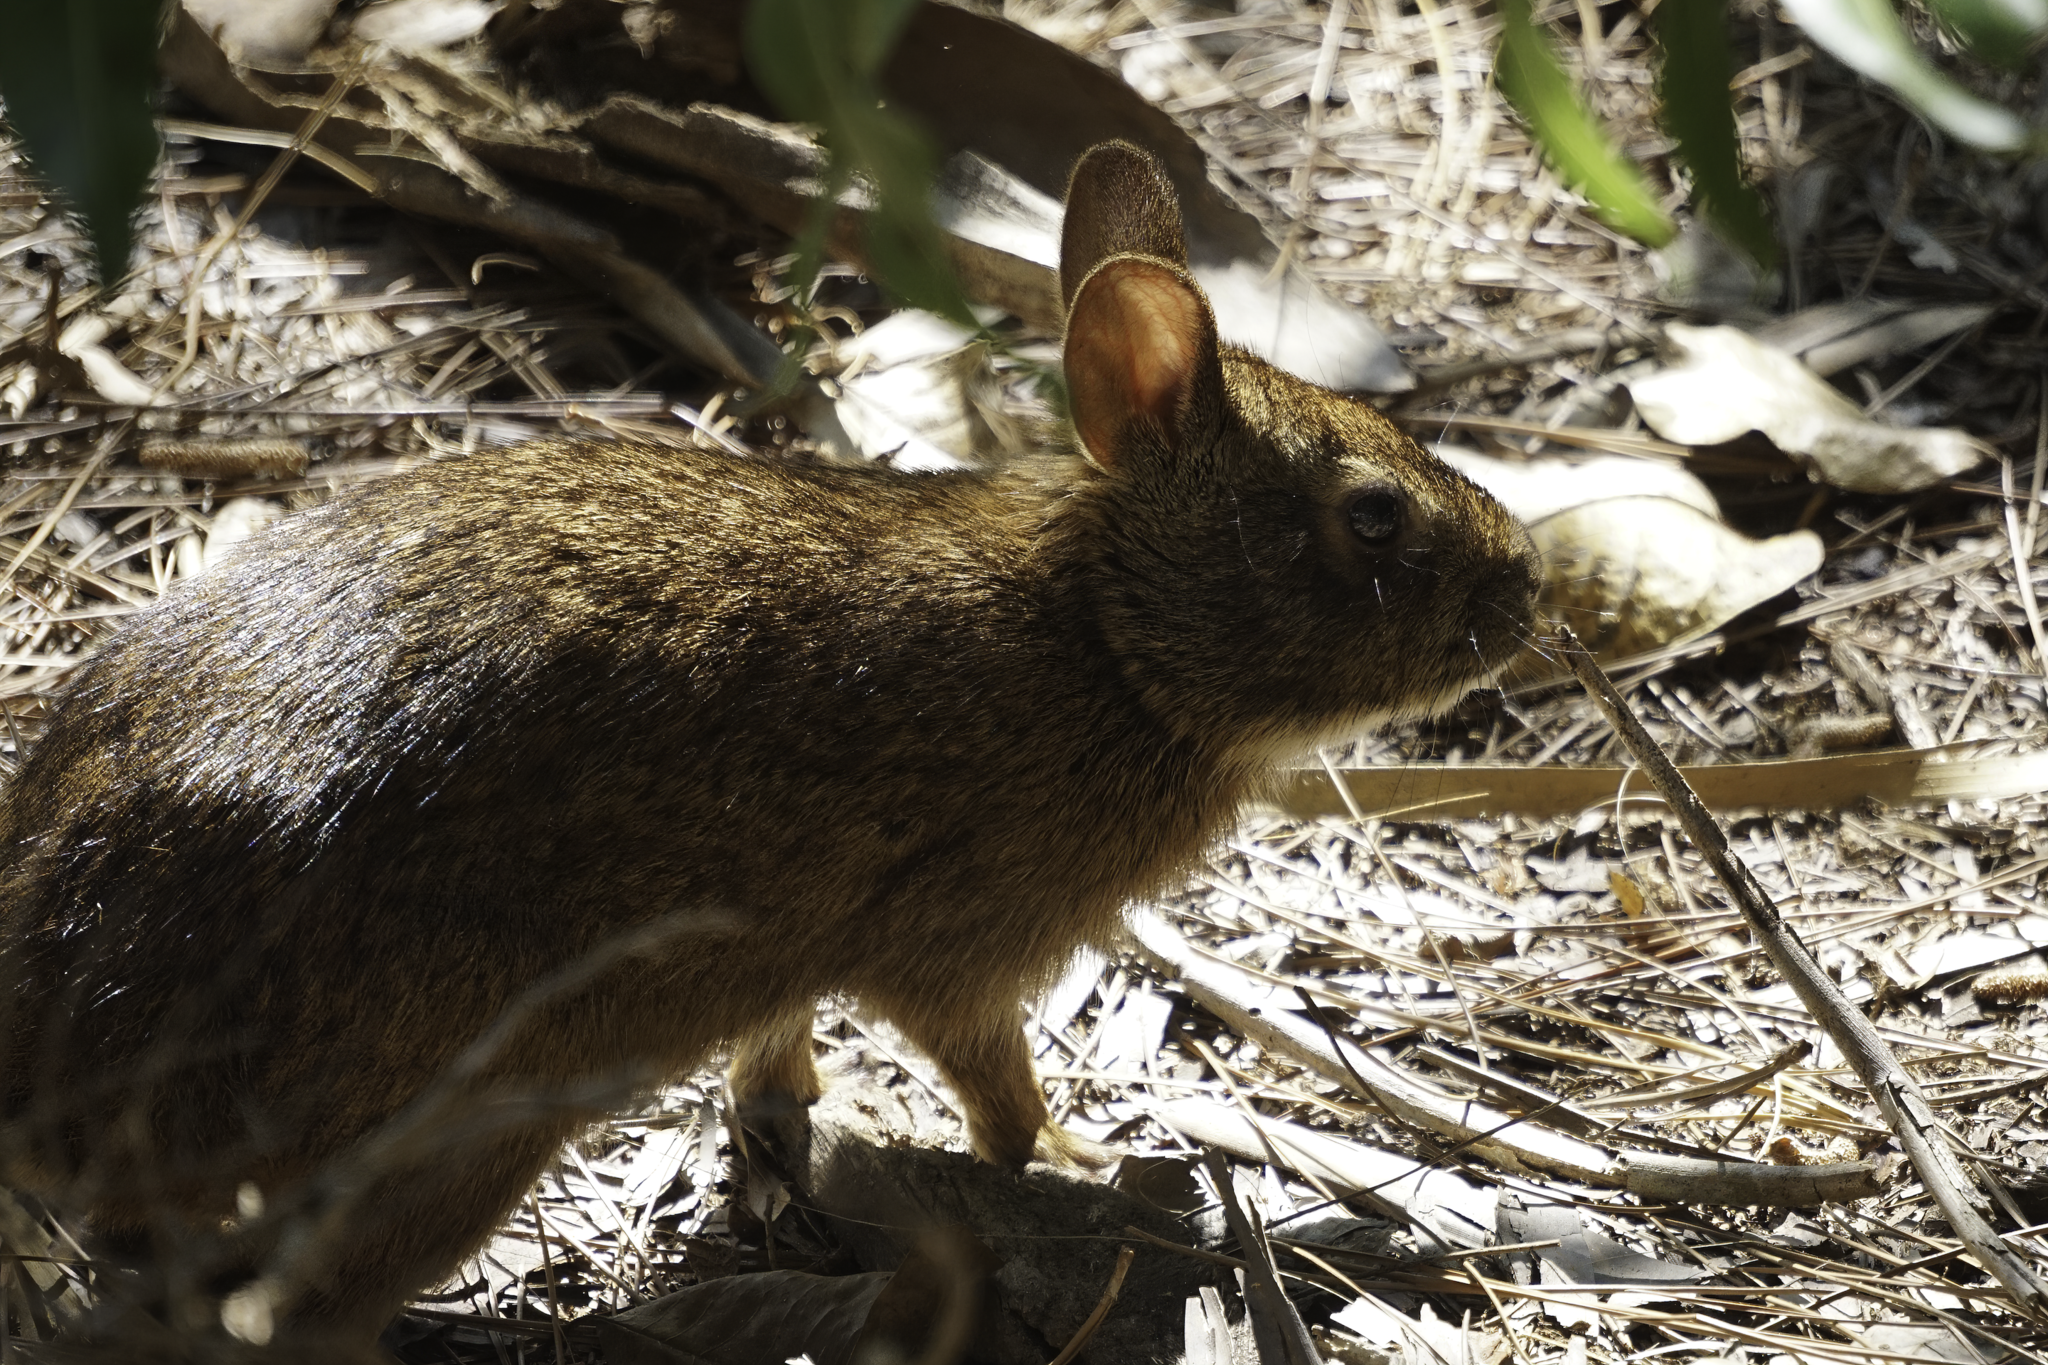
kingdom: Animalia
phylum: Chordata
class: Mammalia
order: Lagomorpha
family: Leporidae
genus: Sylvilagus
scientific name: Sylvilagus palustris
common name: Marsh rabbit
